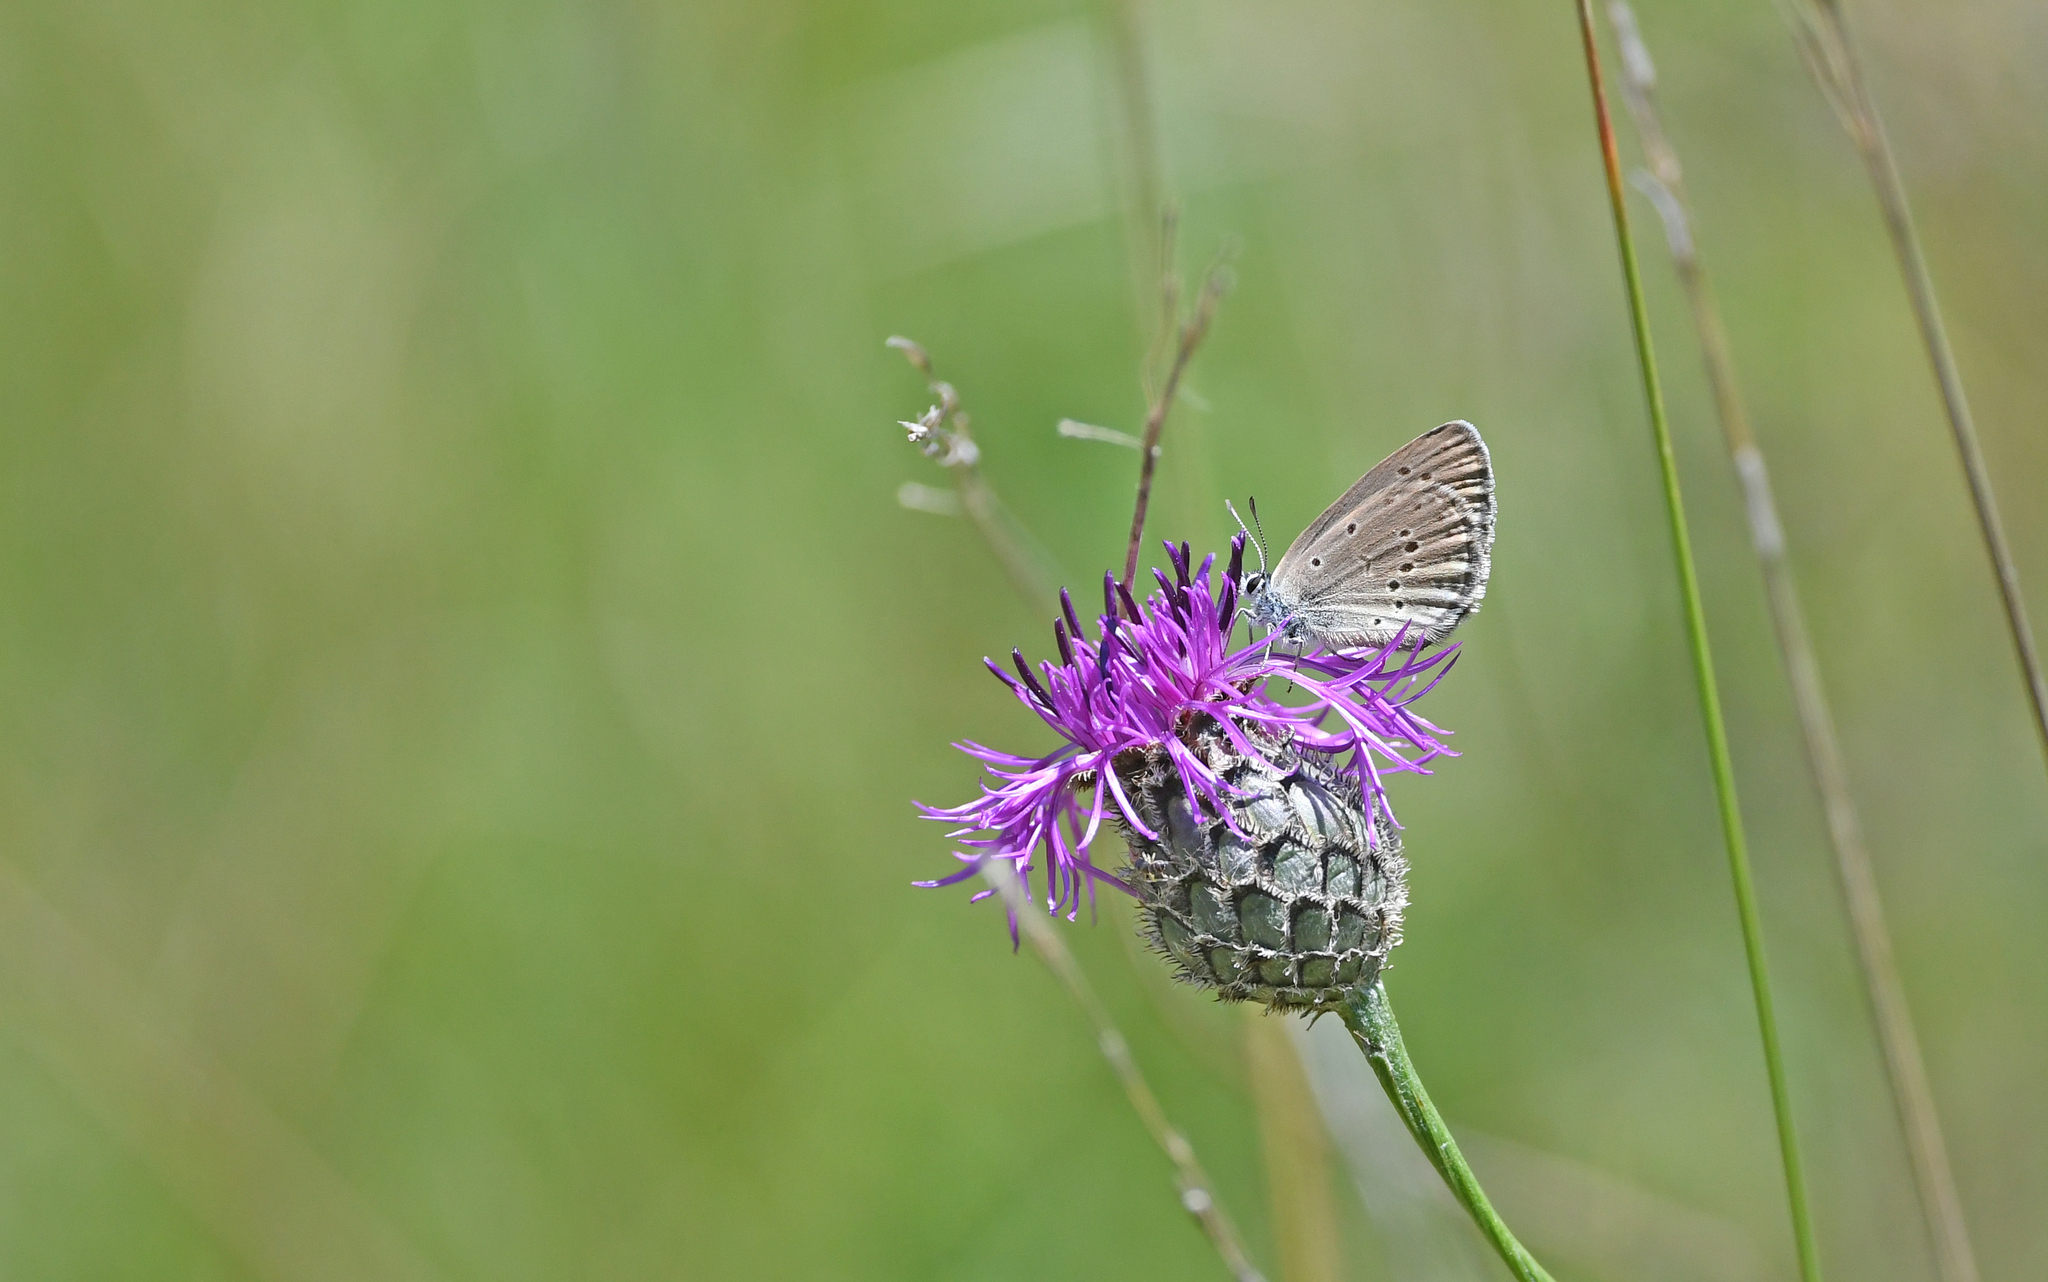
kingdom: Animalia
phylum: Arthropoda
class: Insecta
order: Lepidoptera
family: Lycaenidae
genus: Maculinea
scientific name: Maculinea alcon
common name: Alcon blue
